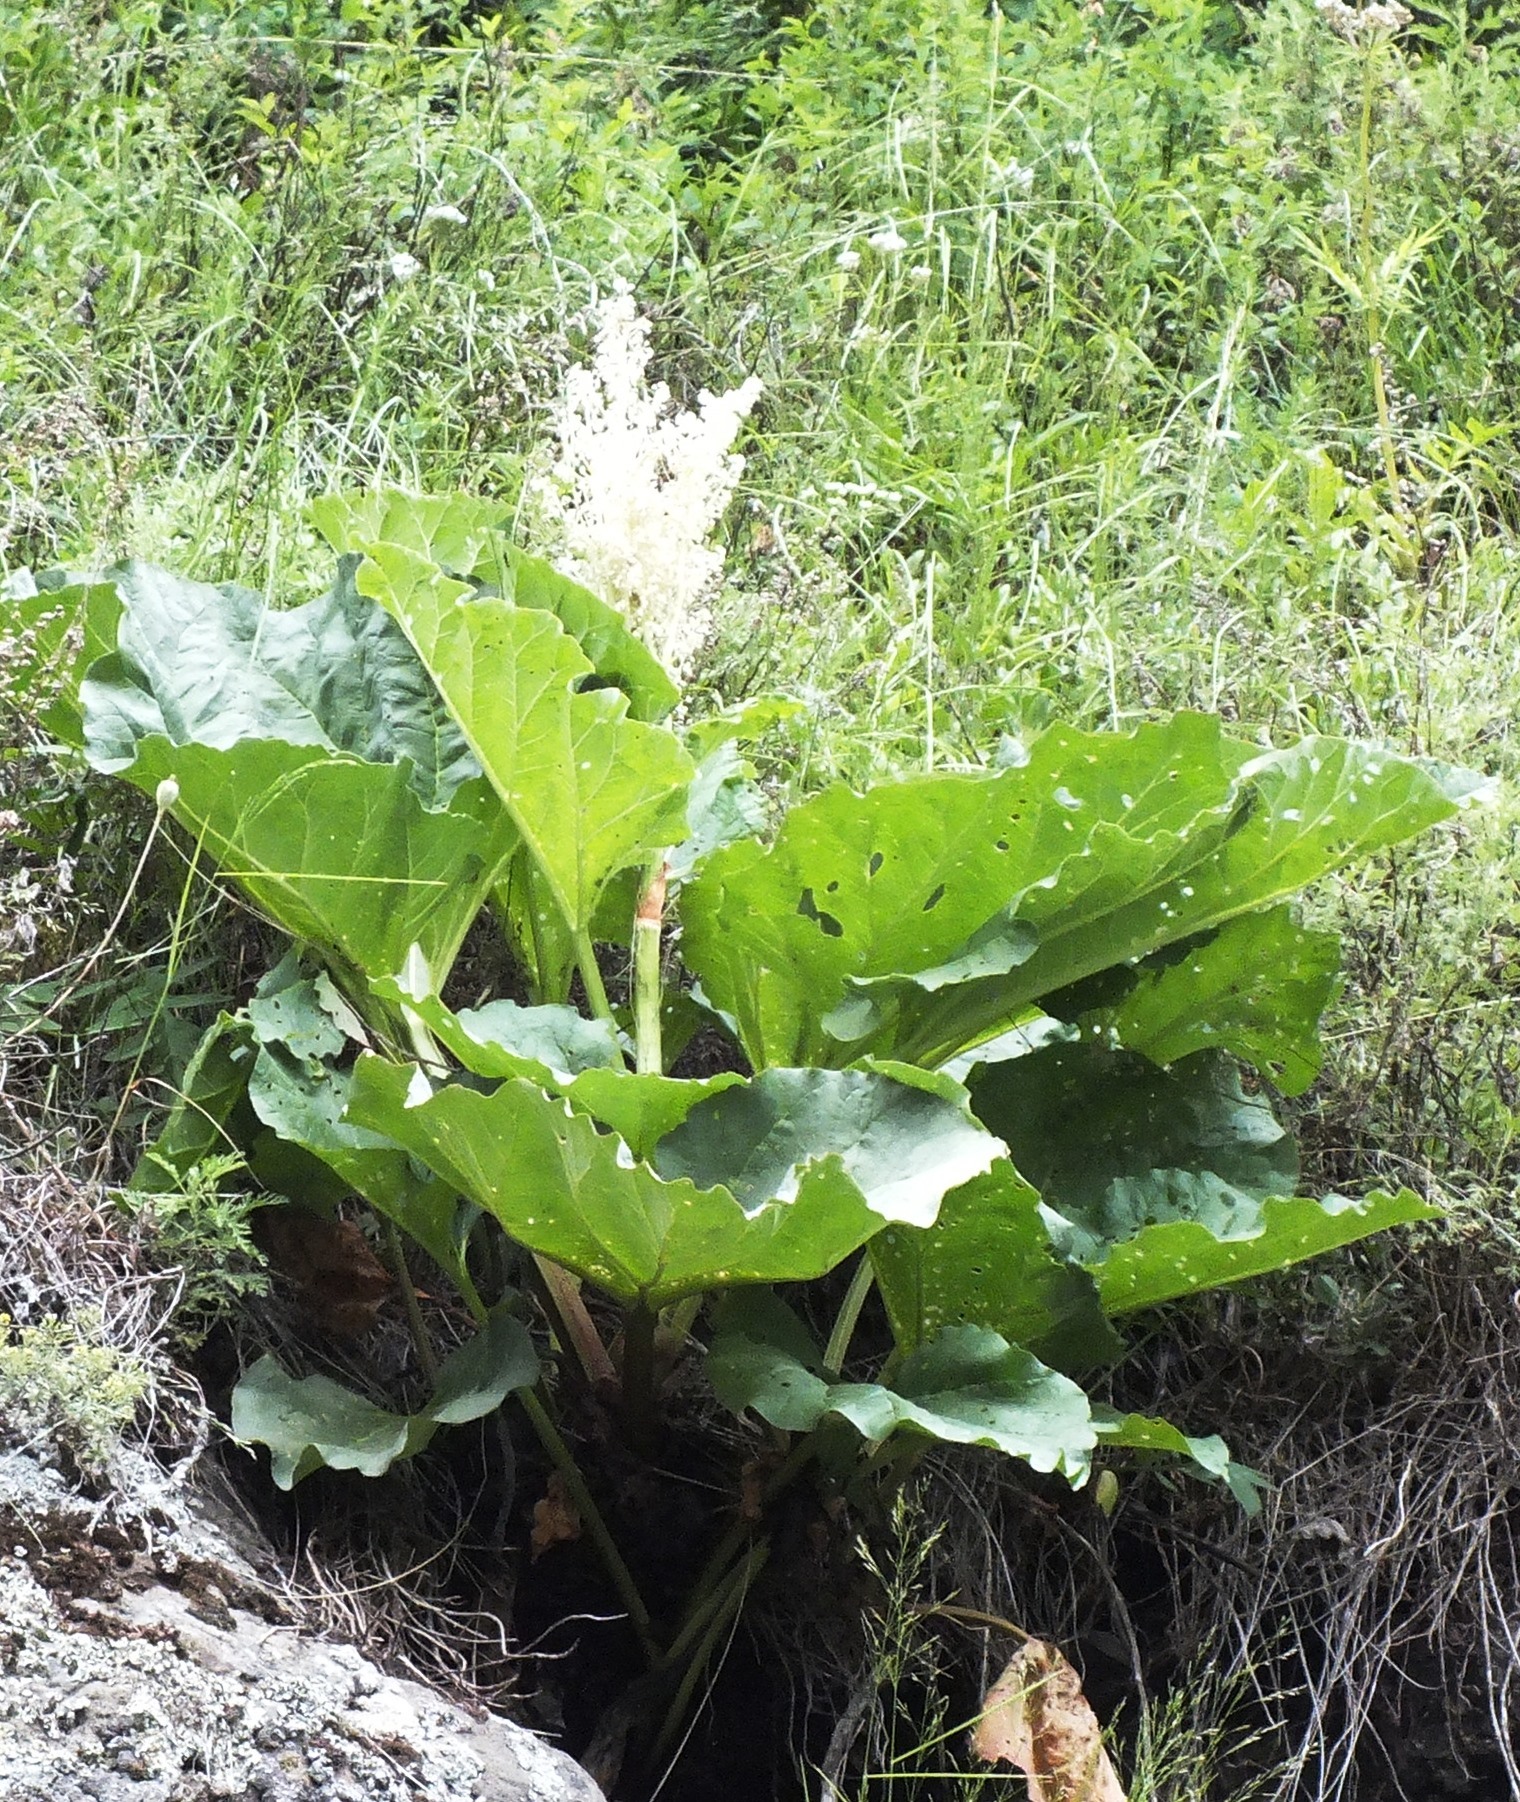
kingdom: Plantae
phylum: Tracheophyta
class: Magnoliopsida
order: Caryophyllales
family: Polygonaceae
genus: Rheum
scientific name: Rheum compactum
